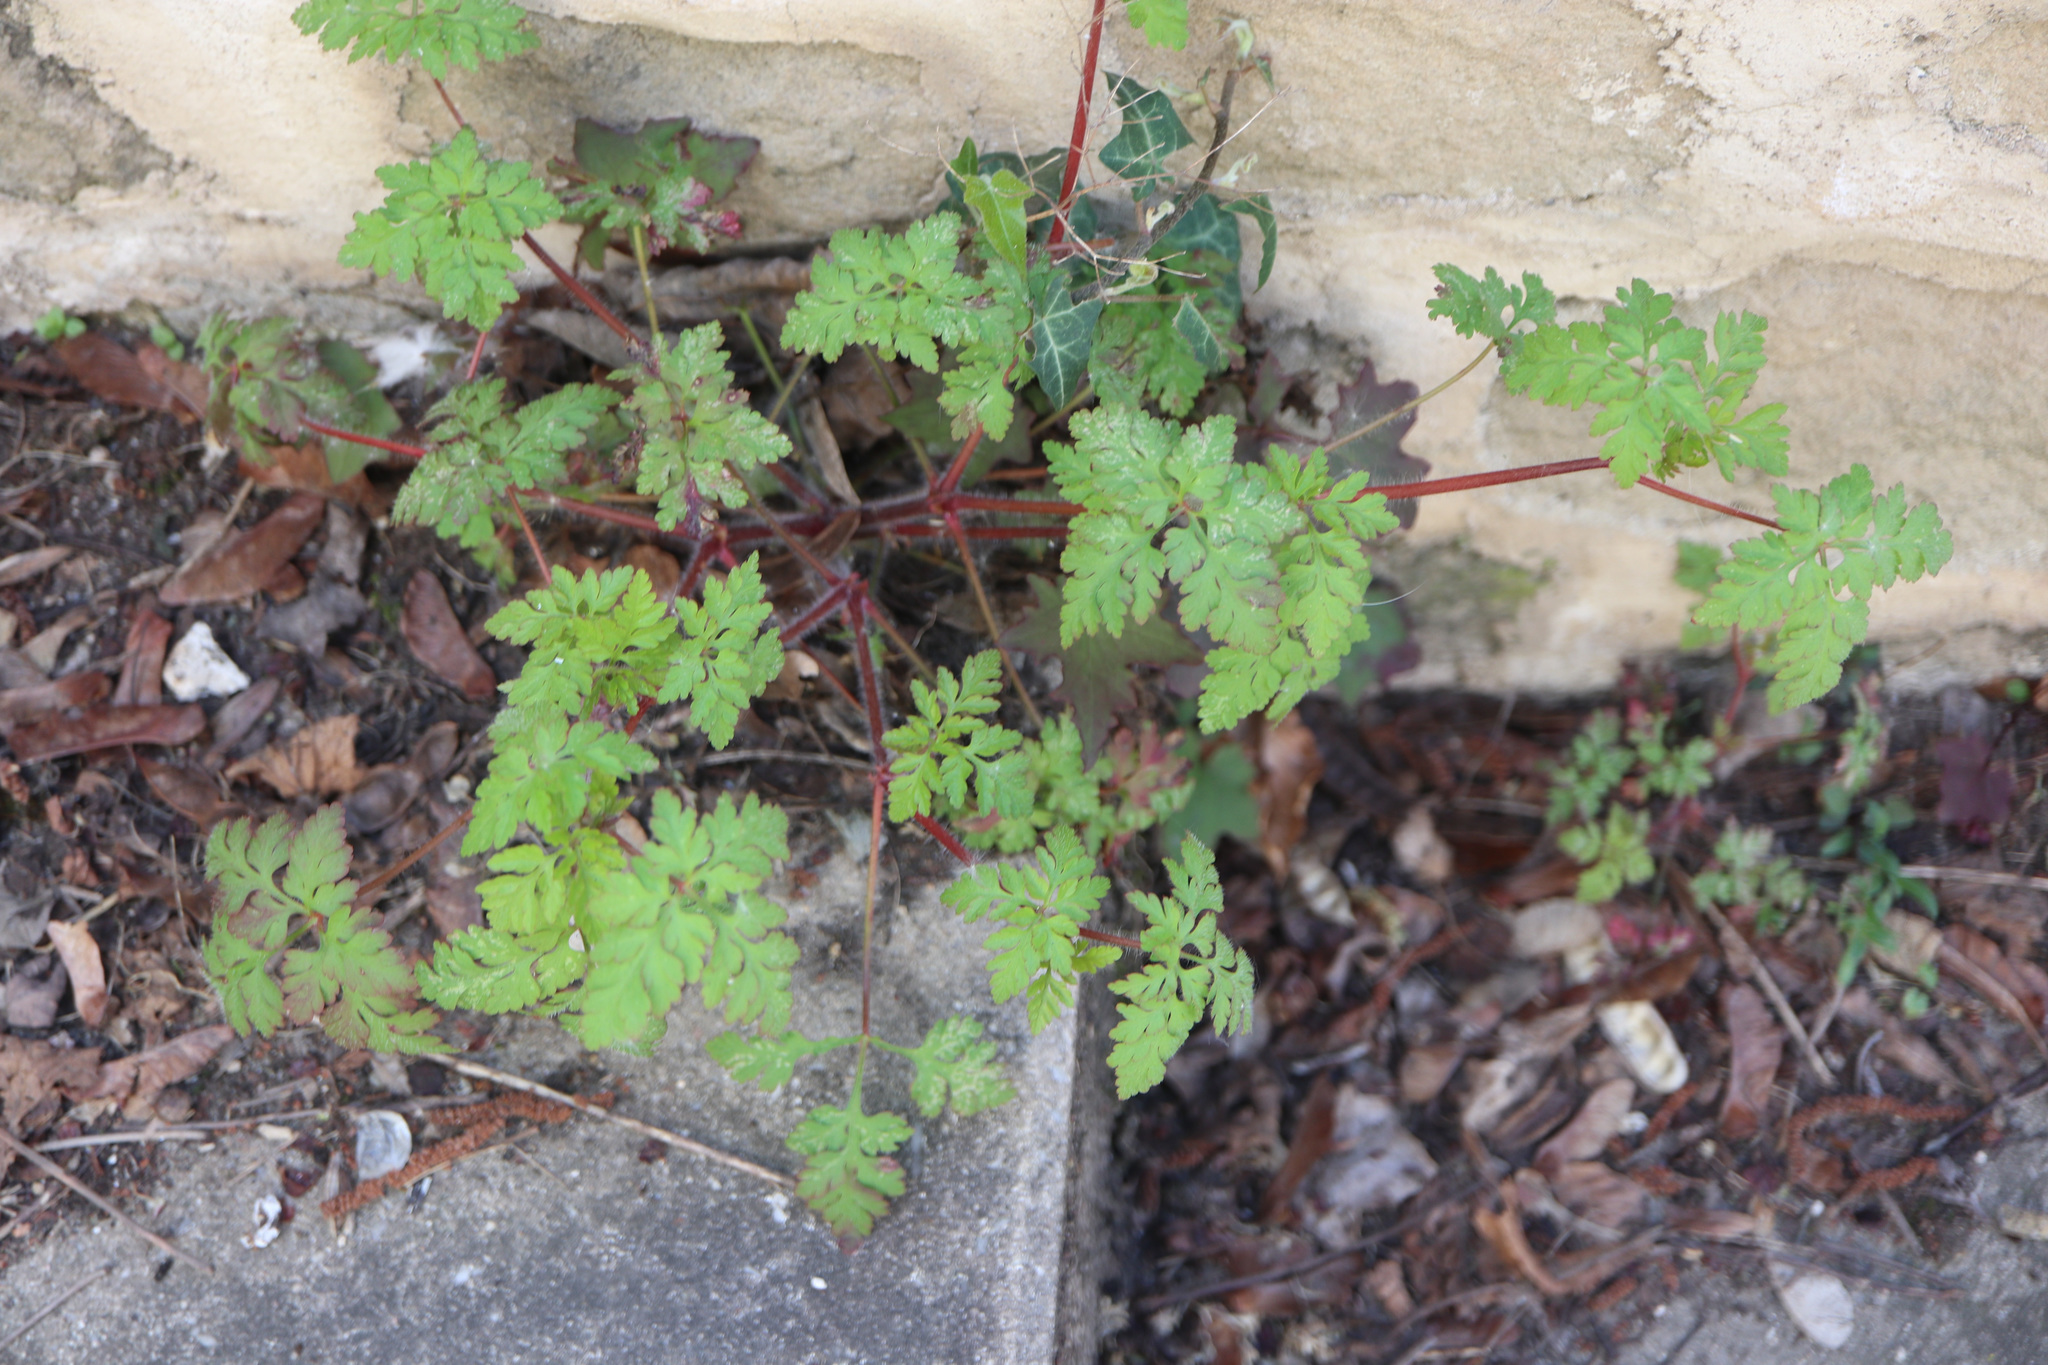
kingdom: Plantae
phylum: Tracheophyta
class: Magnoliopsida
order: Geraniales
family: Geraniaceae
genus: Geranium
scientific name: Geranium robertianum
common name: Herb-robert
